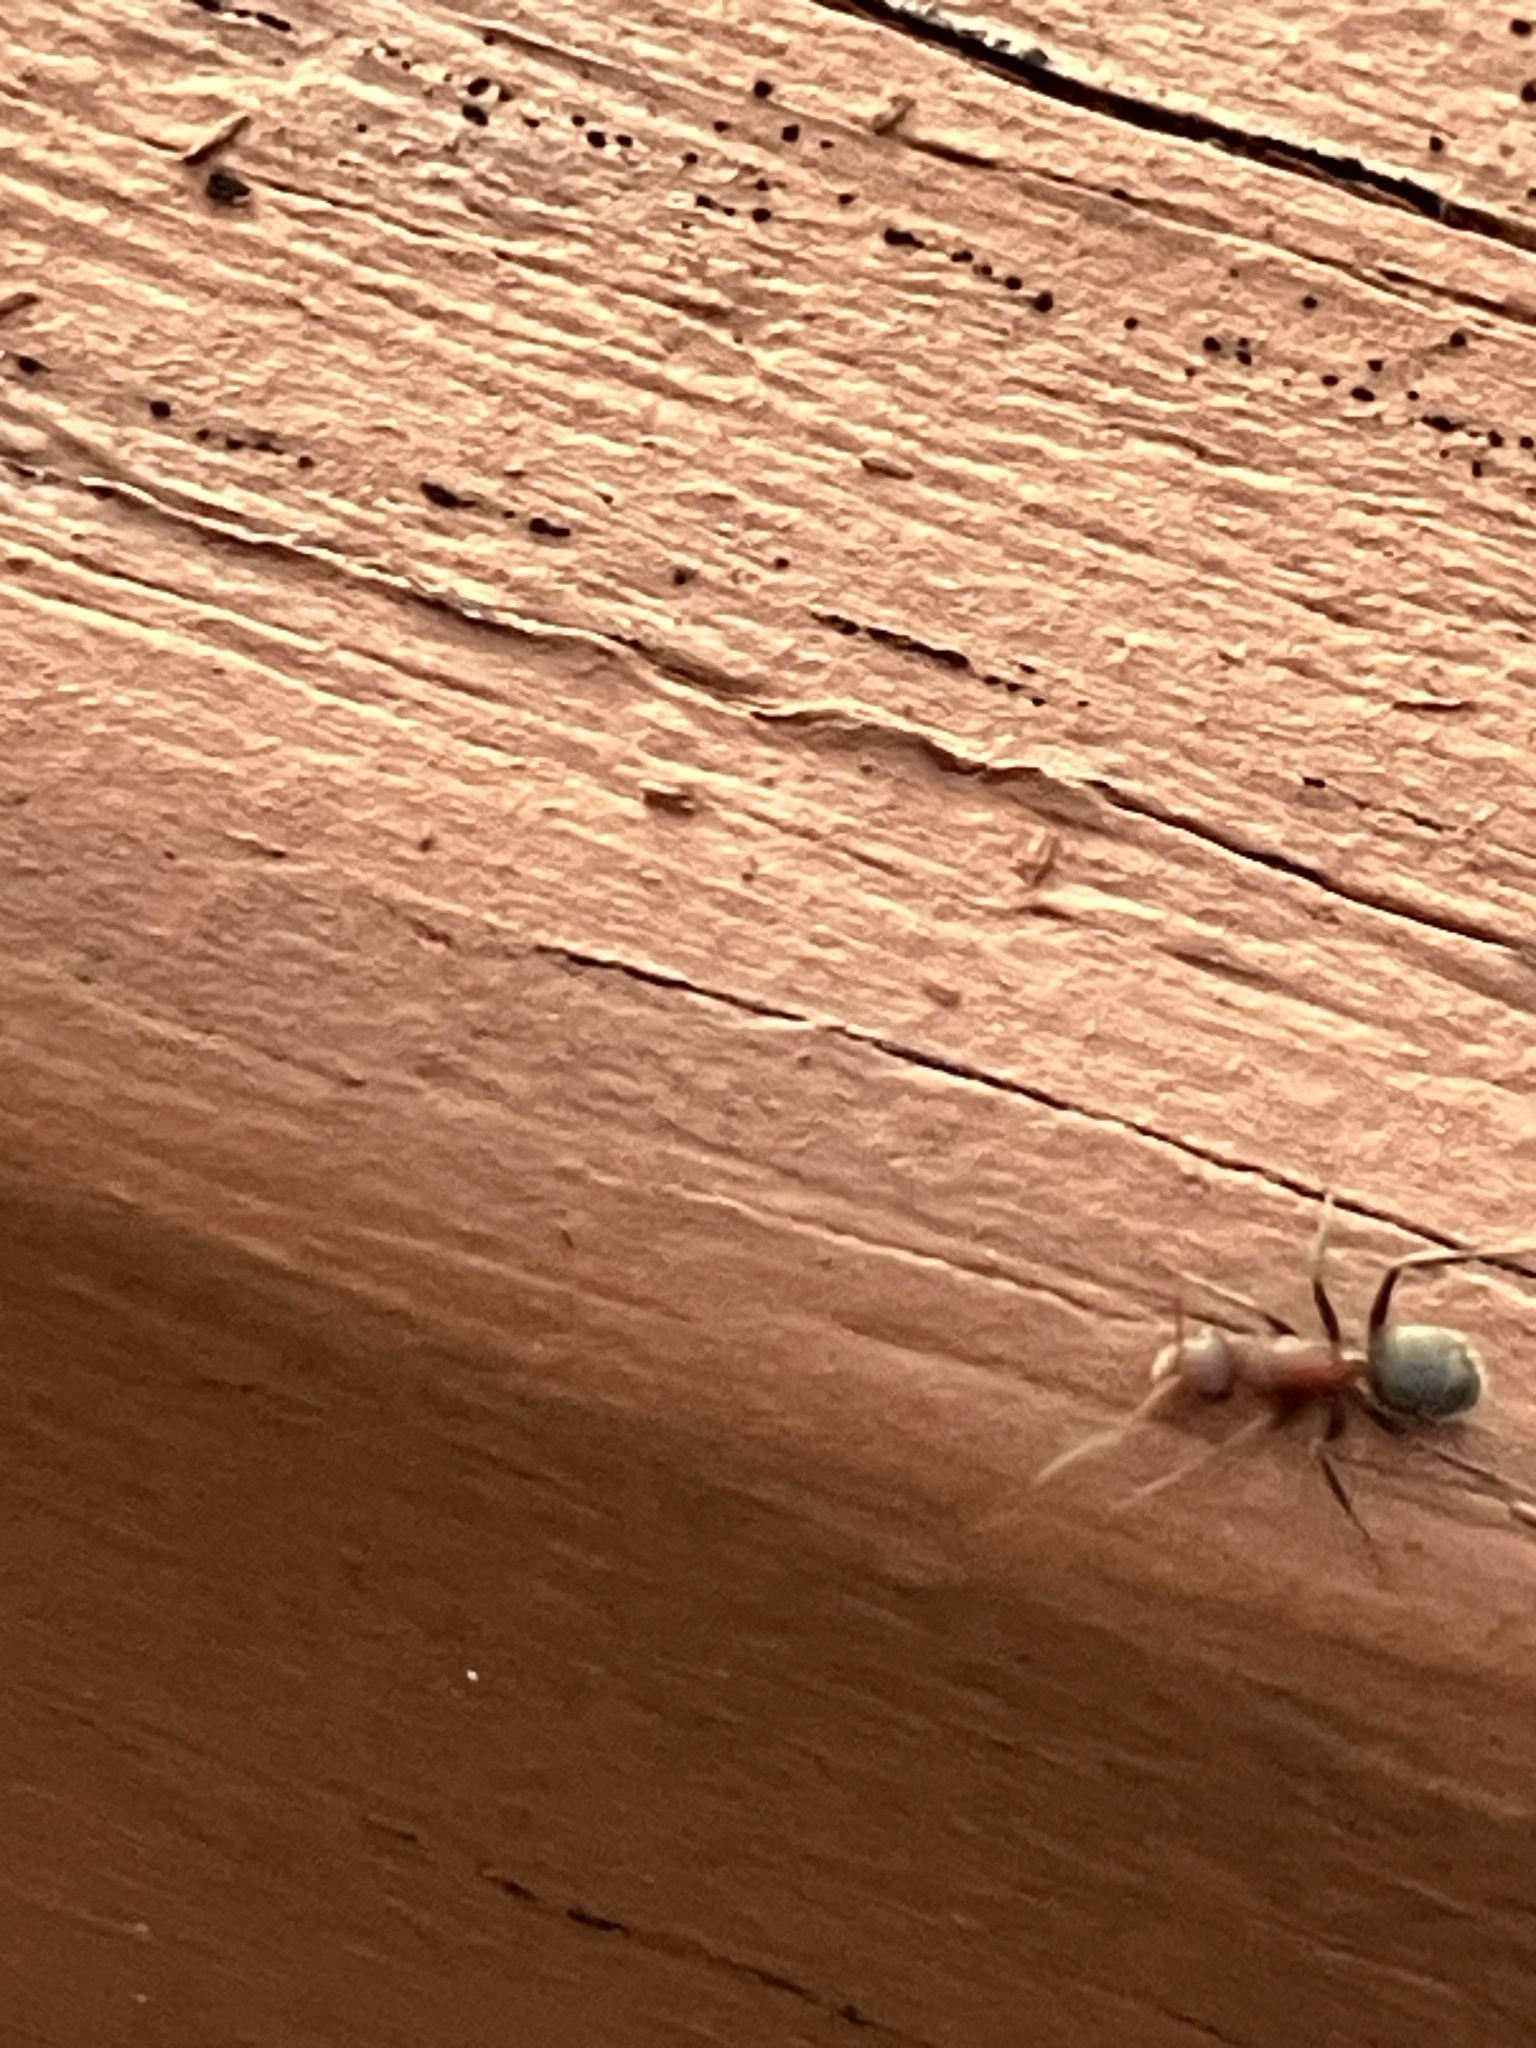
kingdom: Animalia
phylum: Arthropoda
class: Insecta
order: Hymenoptera
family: Formicidae
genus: Camponotus
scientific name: Camponotus planatus
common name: Compact carpenter ant
